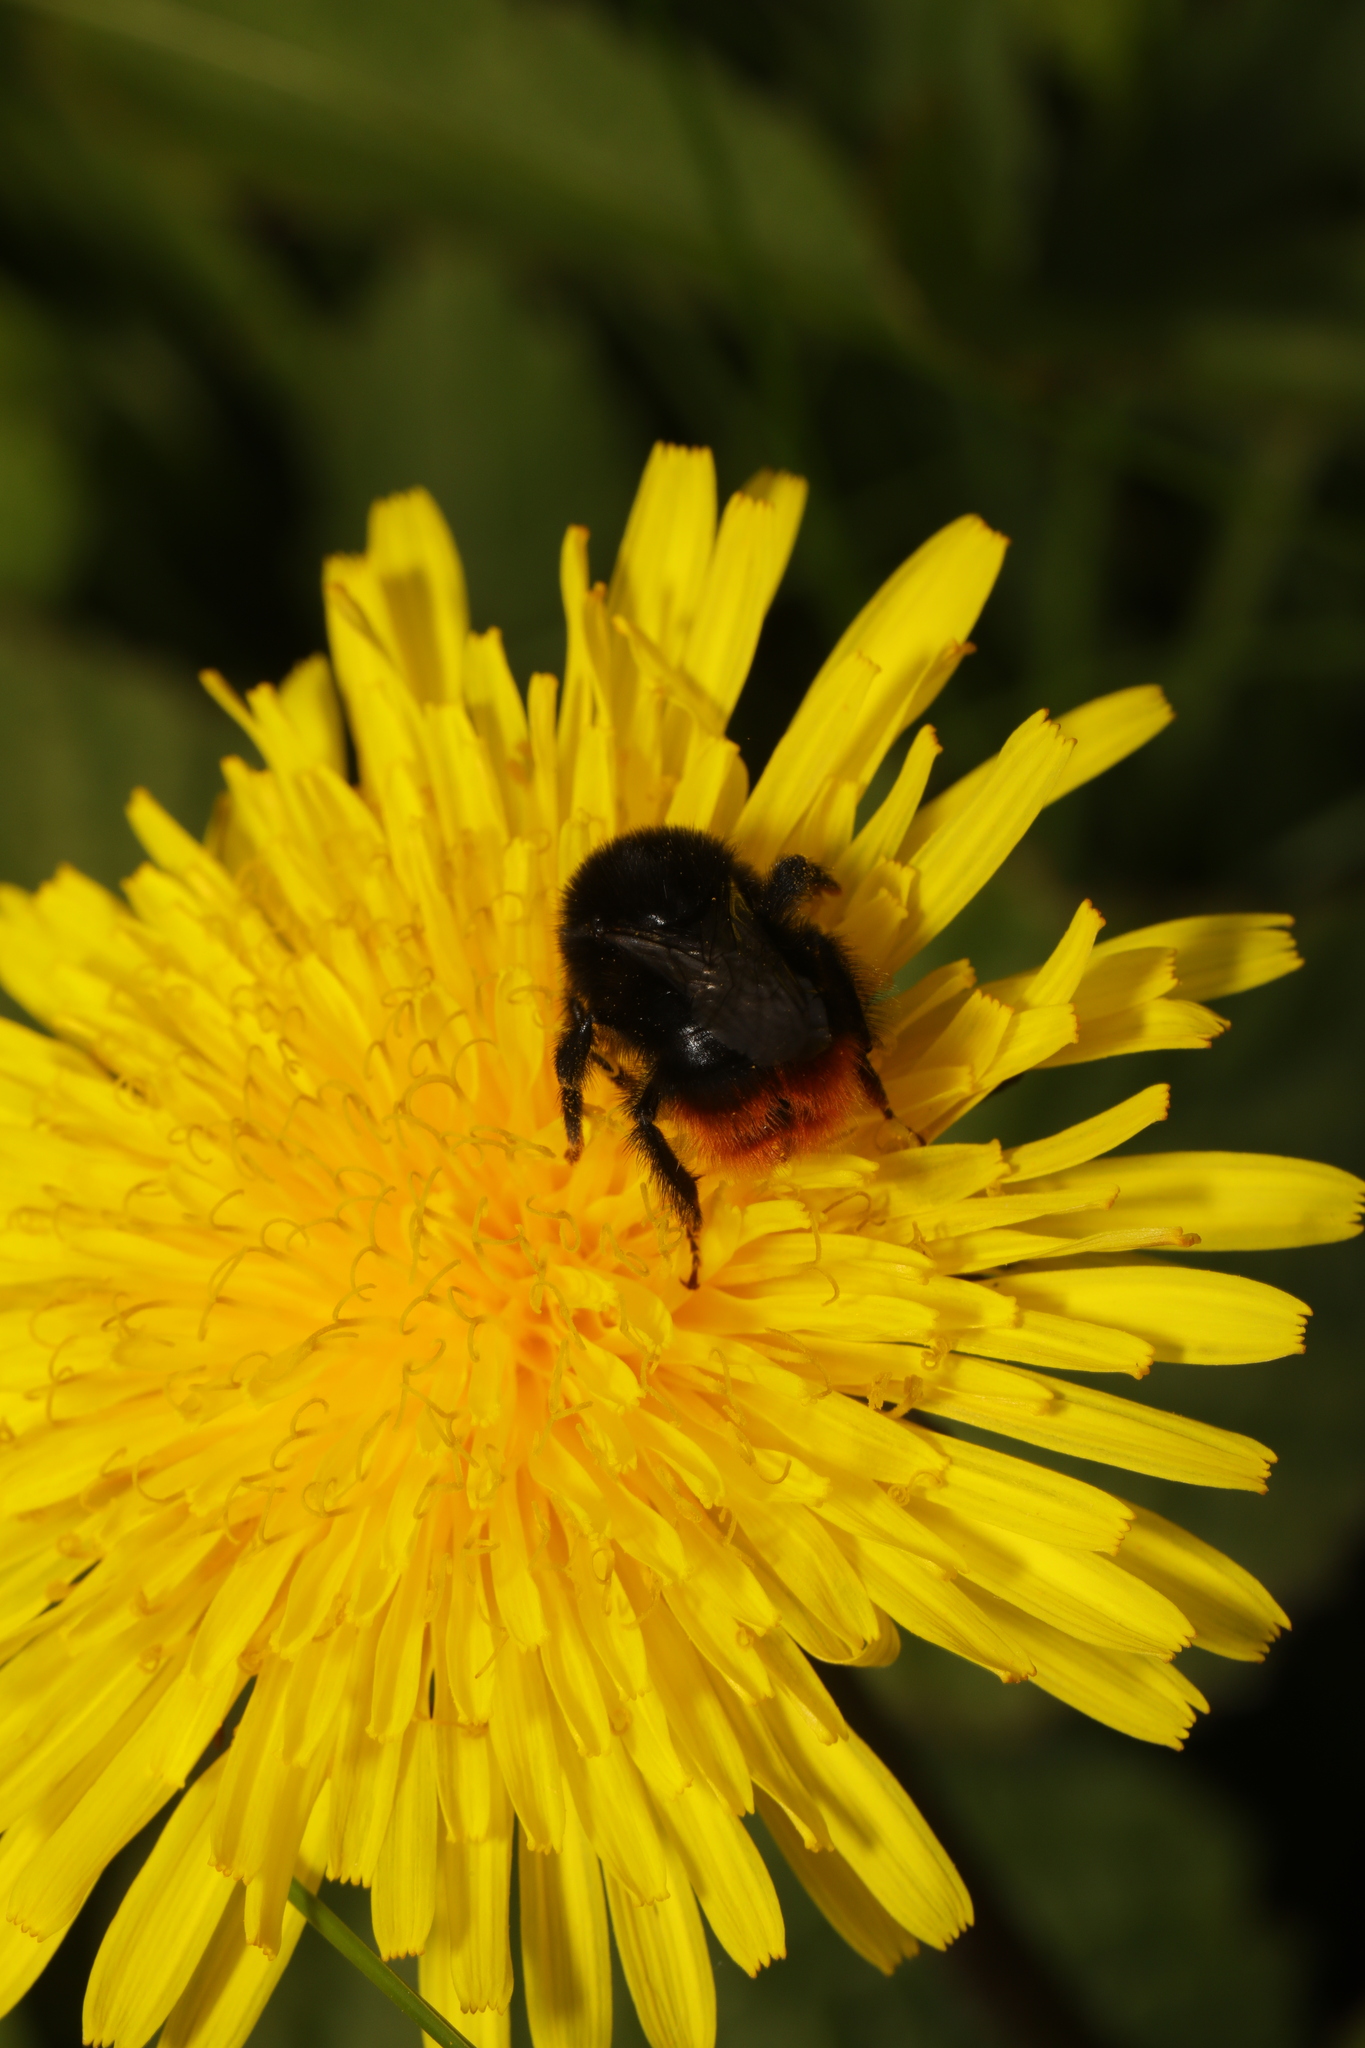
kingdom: Animalia
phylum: Arthropoda
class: Insecta
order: Hymenoptera
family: Apidae
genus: Bombus
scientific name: Bombus lapidarius
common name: Large red-tailed humble-bee
